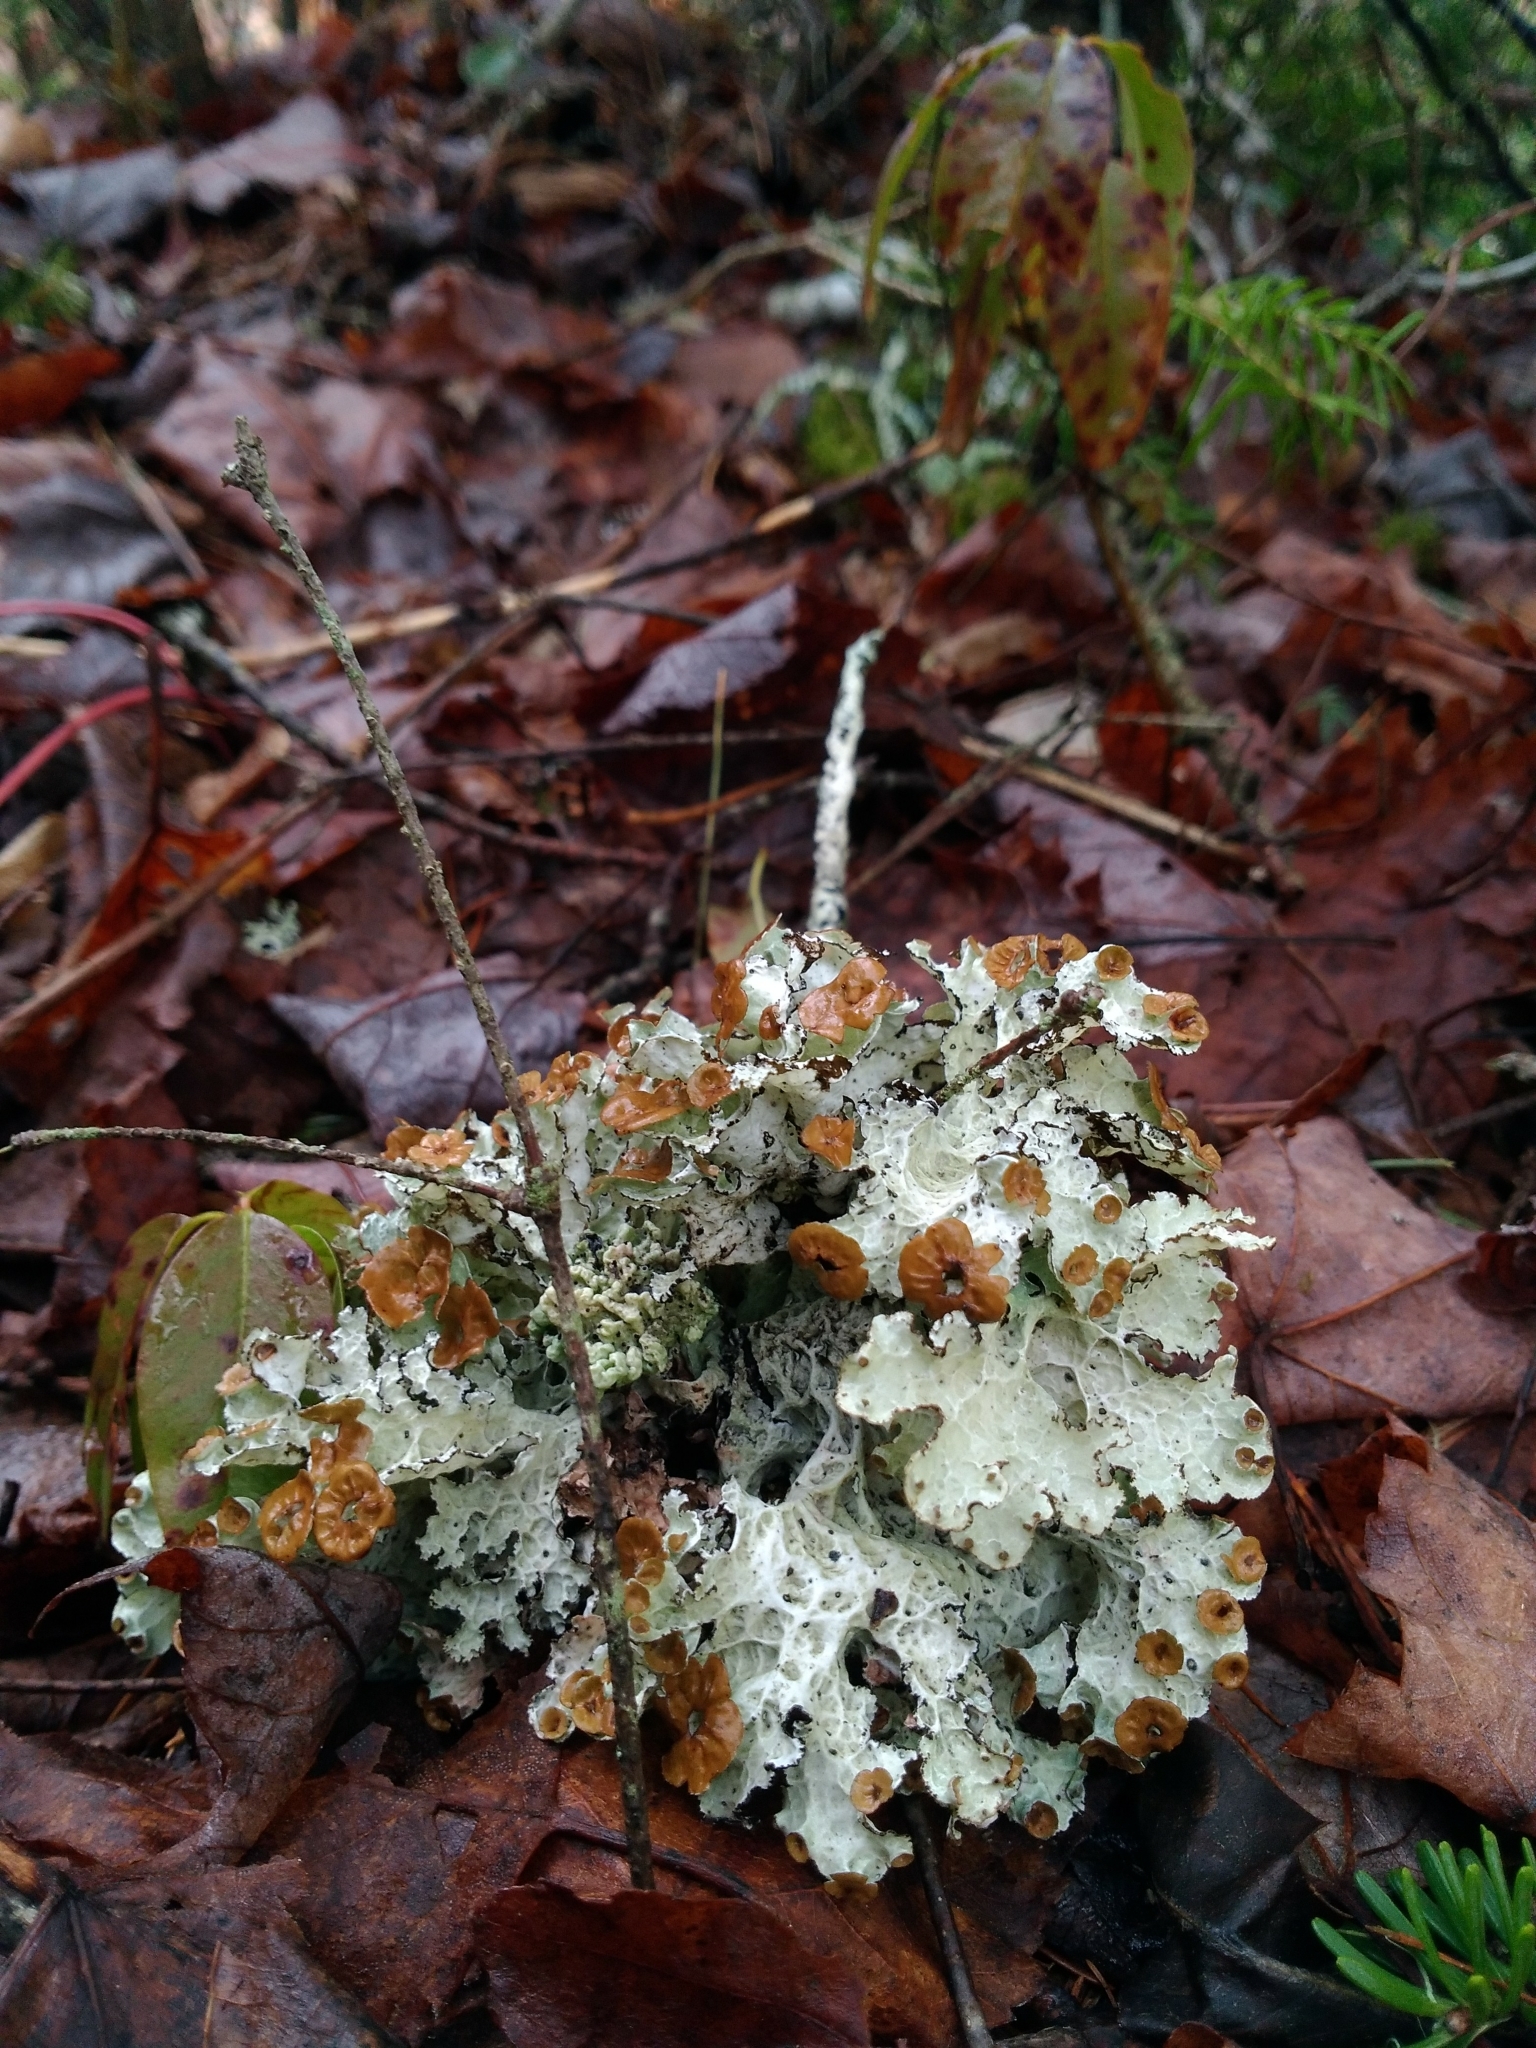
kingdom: Fungi
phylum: Ascomycota
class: Lecanoromycetes
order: Lecanorales
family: Parmeliaceae
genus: Platismatia
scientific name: Platismatia tuckermanii
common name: Crumpled rag lichen
